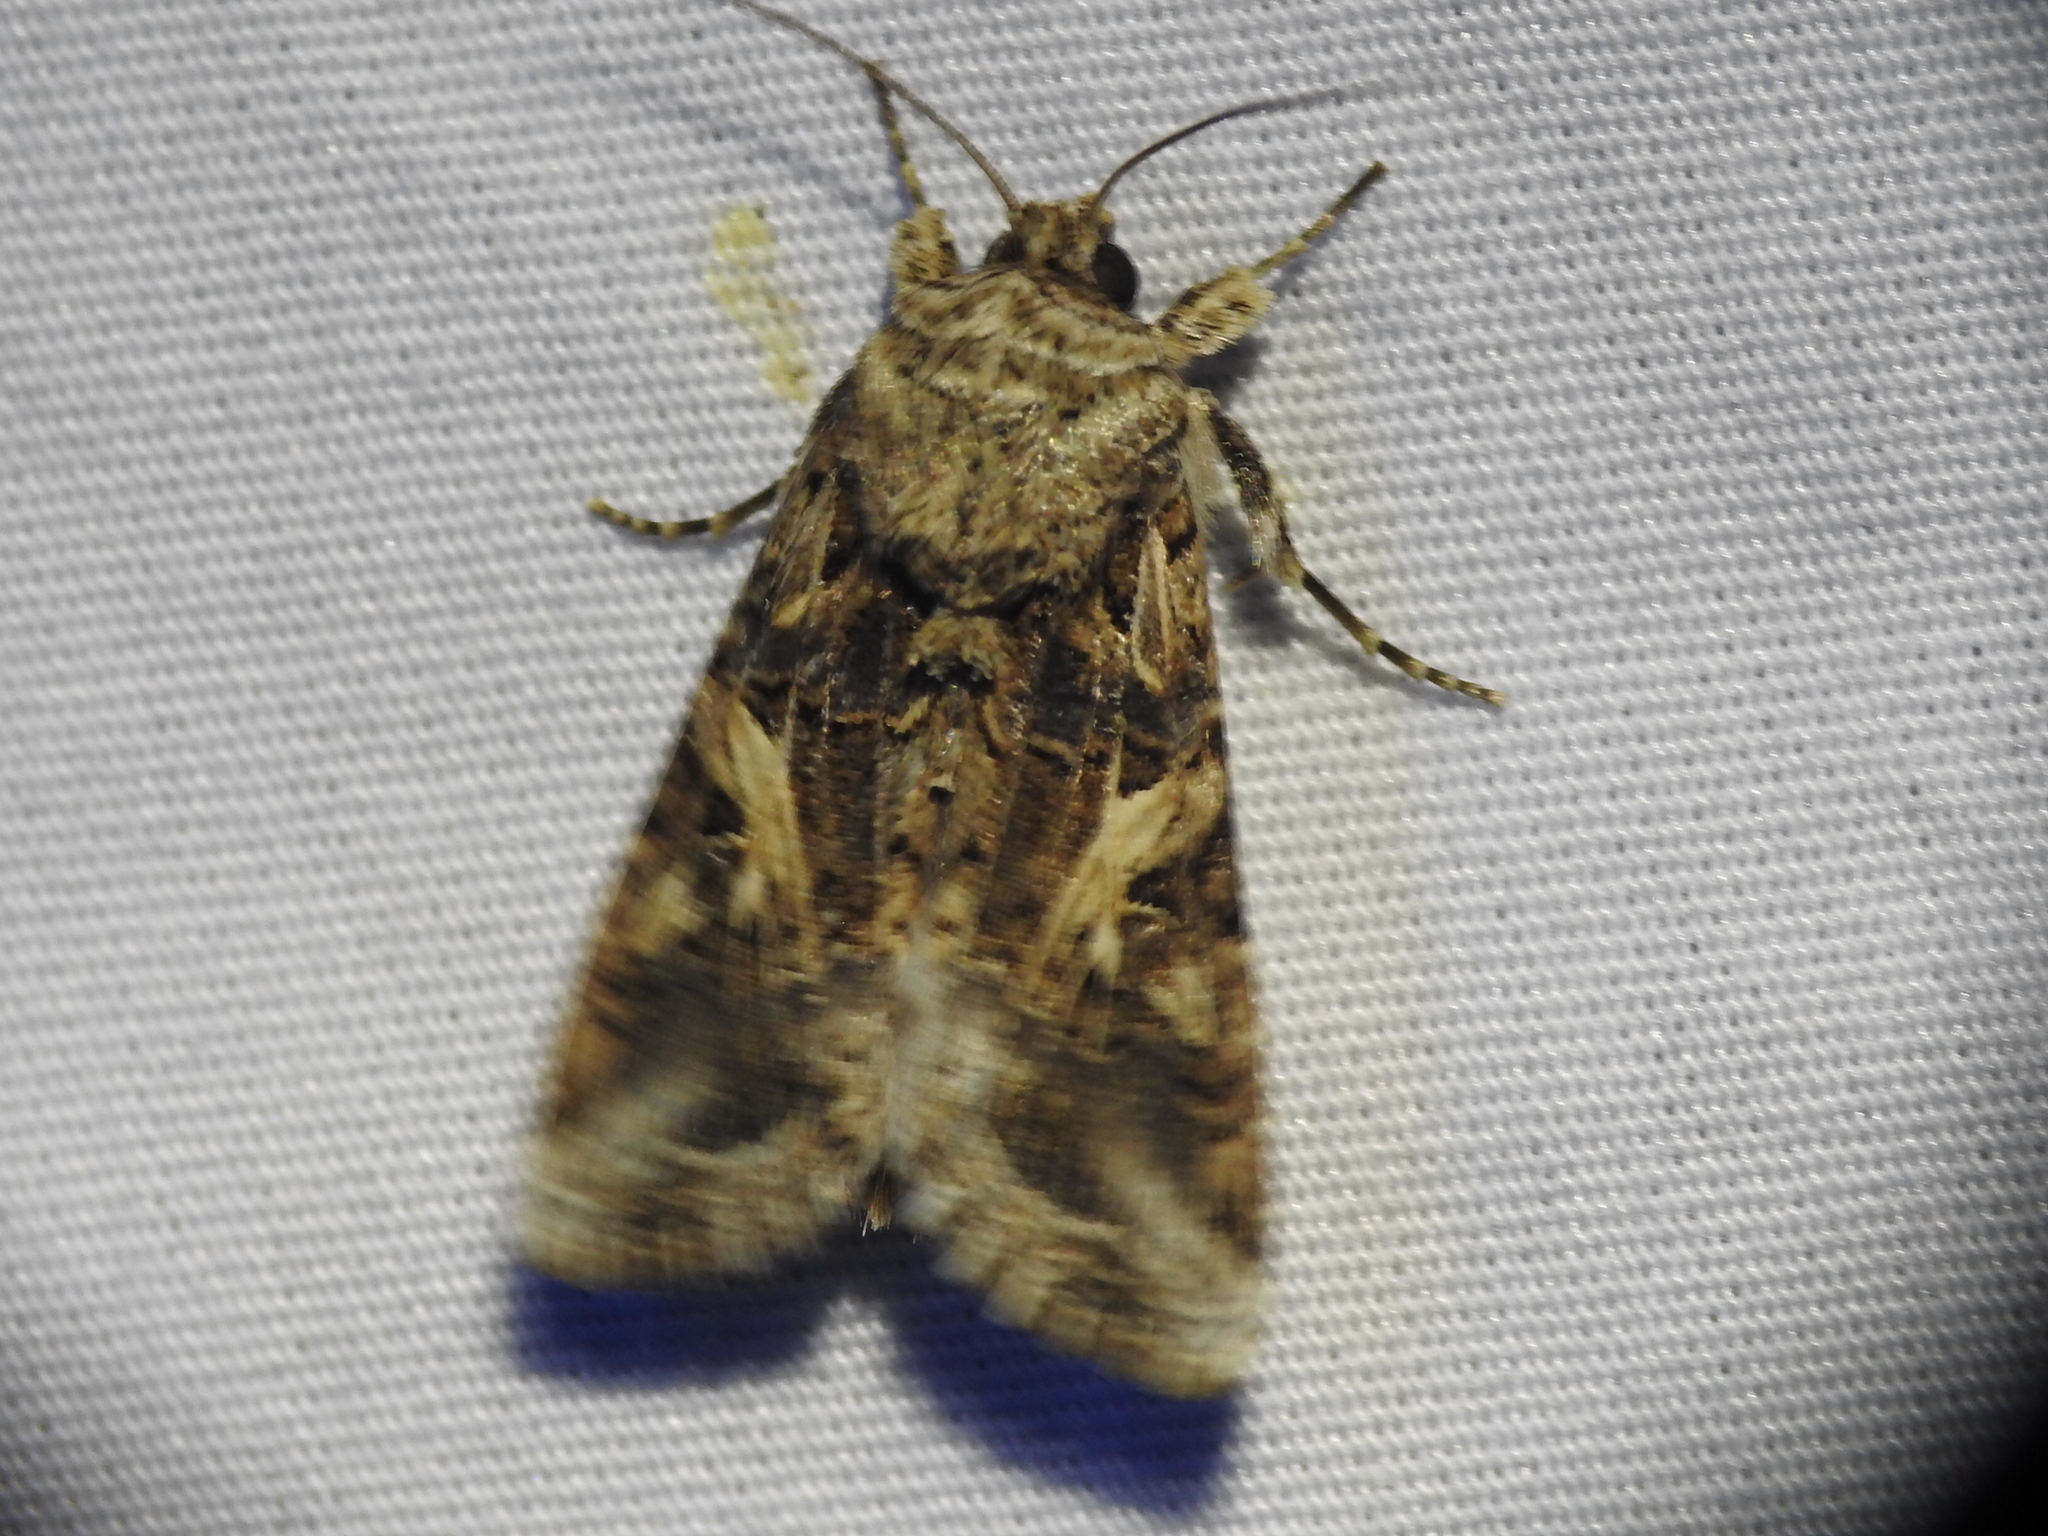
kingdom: Animalia
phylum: Arthropoda
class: Insecta
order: Lepidoptera
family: Noctuidae
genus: Spodoptera
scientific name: Spodoptera ornithogalli
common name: Yellow-striped armyworm
